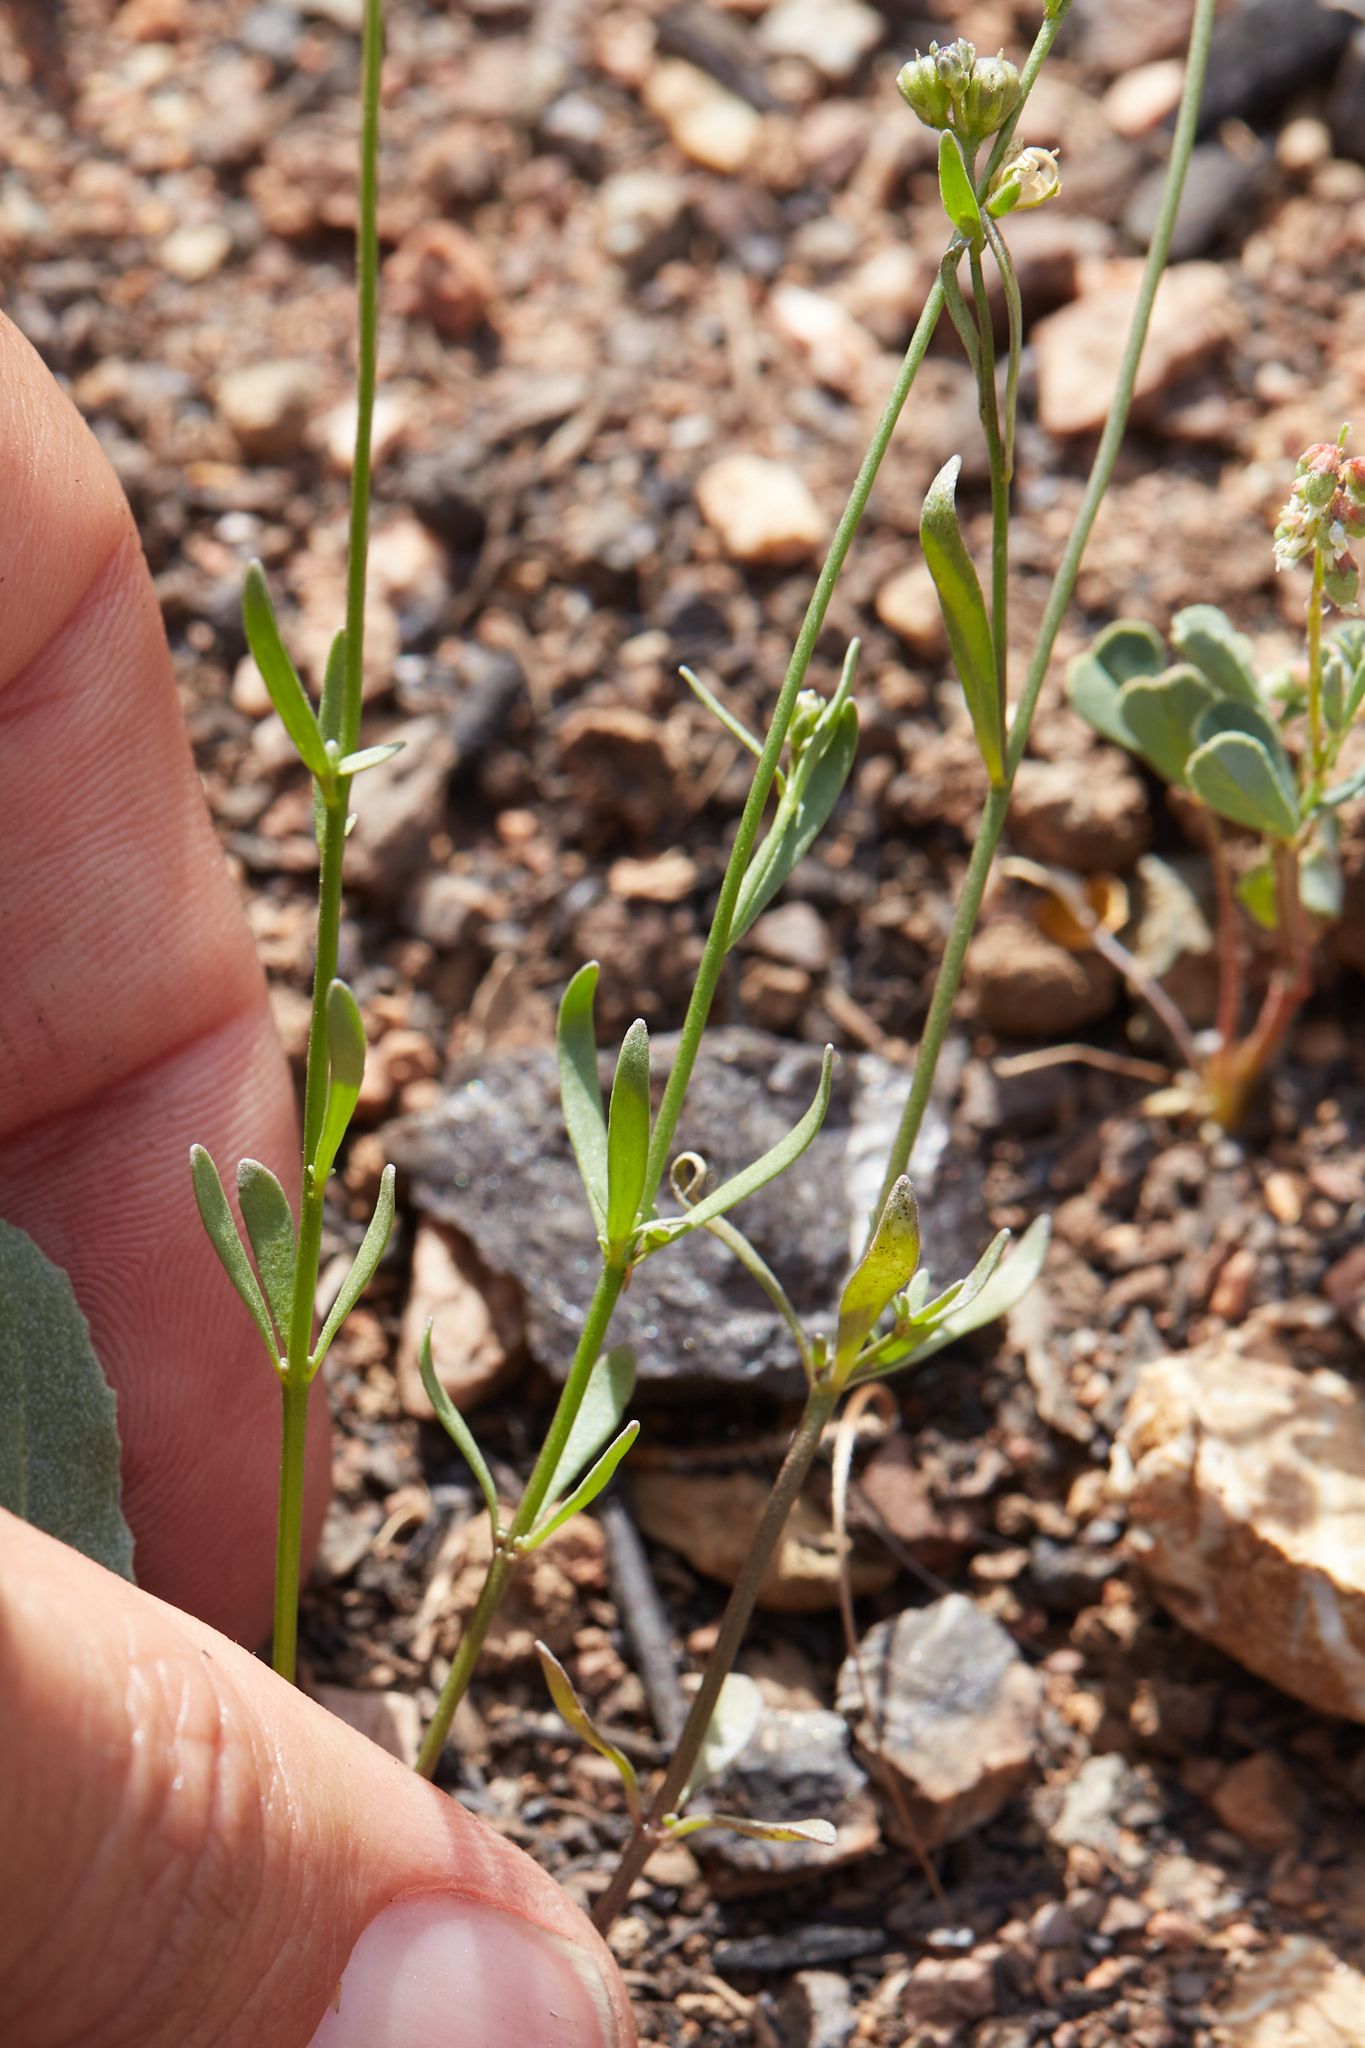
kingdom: Plantae
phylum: Tracheophyta
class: Magnoliopsida
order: Lamiales
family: Plantaginaceae
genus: Nuttallanthus
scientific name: Nuttallanthus texanus
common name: Texas toadflax
